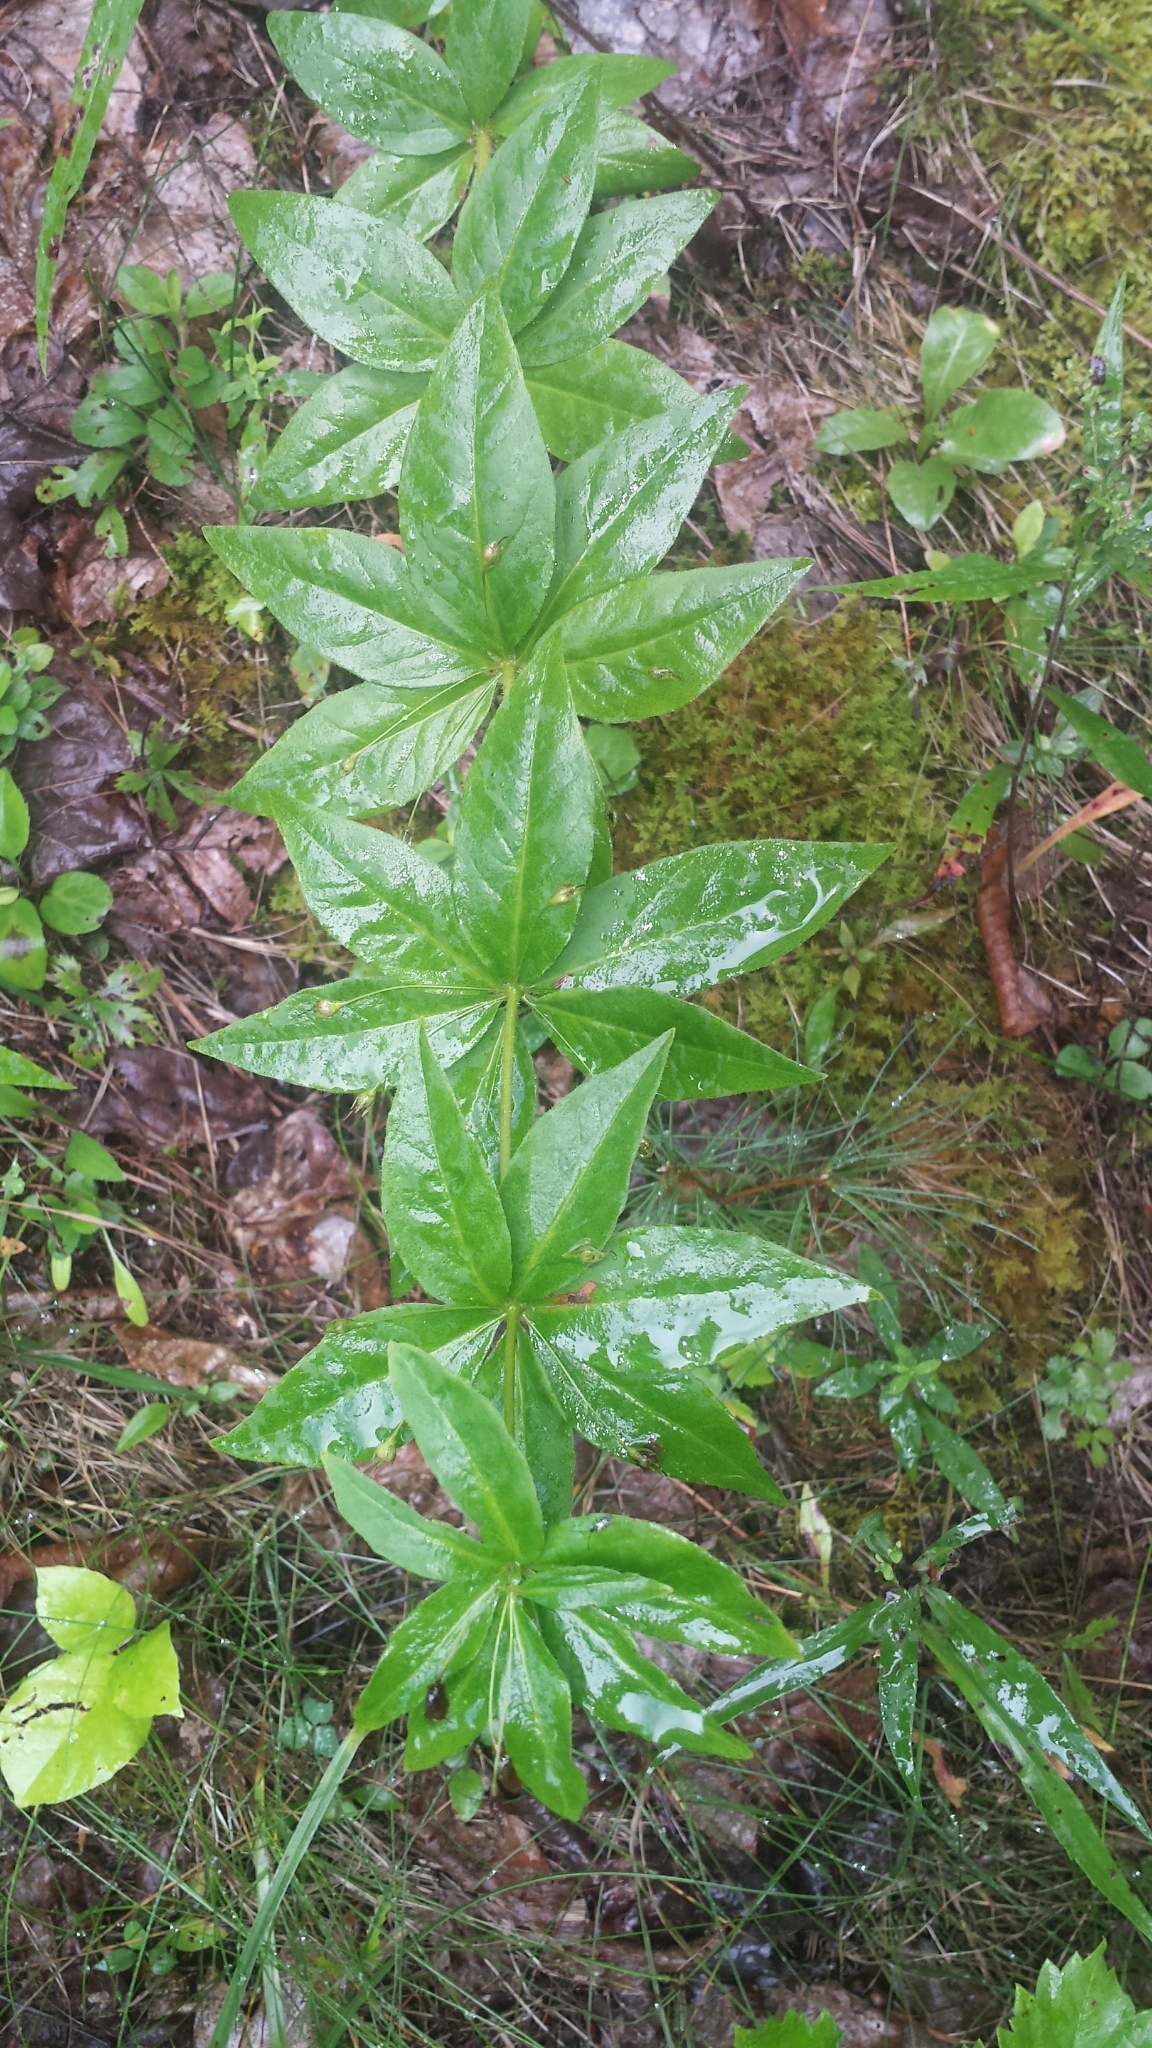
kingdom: Plantae
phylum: Tracheophyta
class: Magnoliopsida
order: Ericales
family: Primulaceae
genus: Lysimachia
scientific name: Lysimachia quadrifolia
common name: Whorled loosestrife
